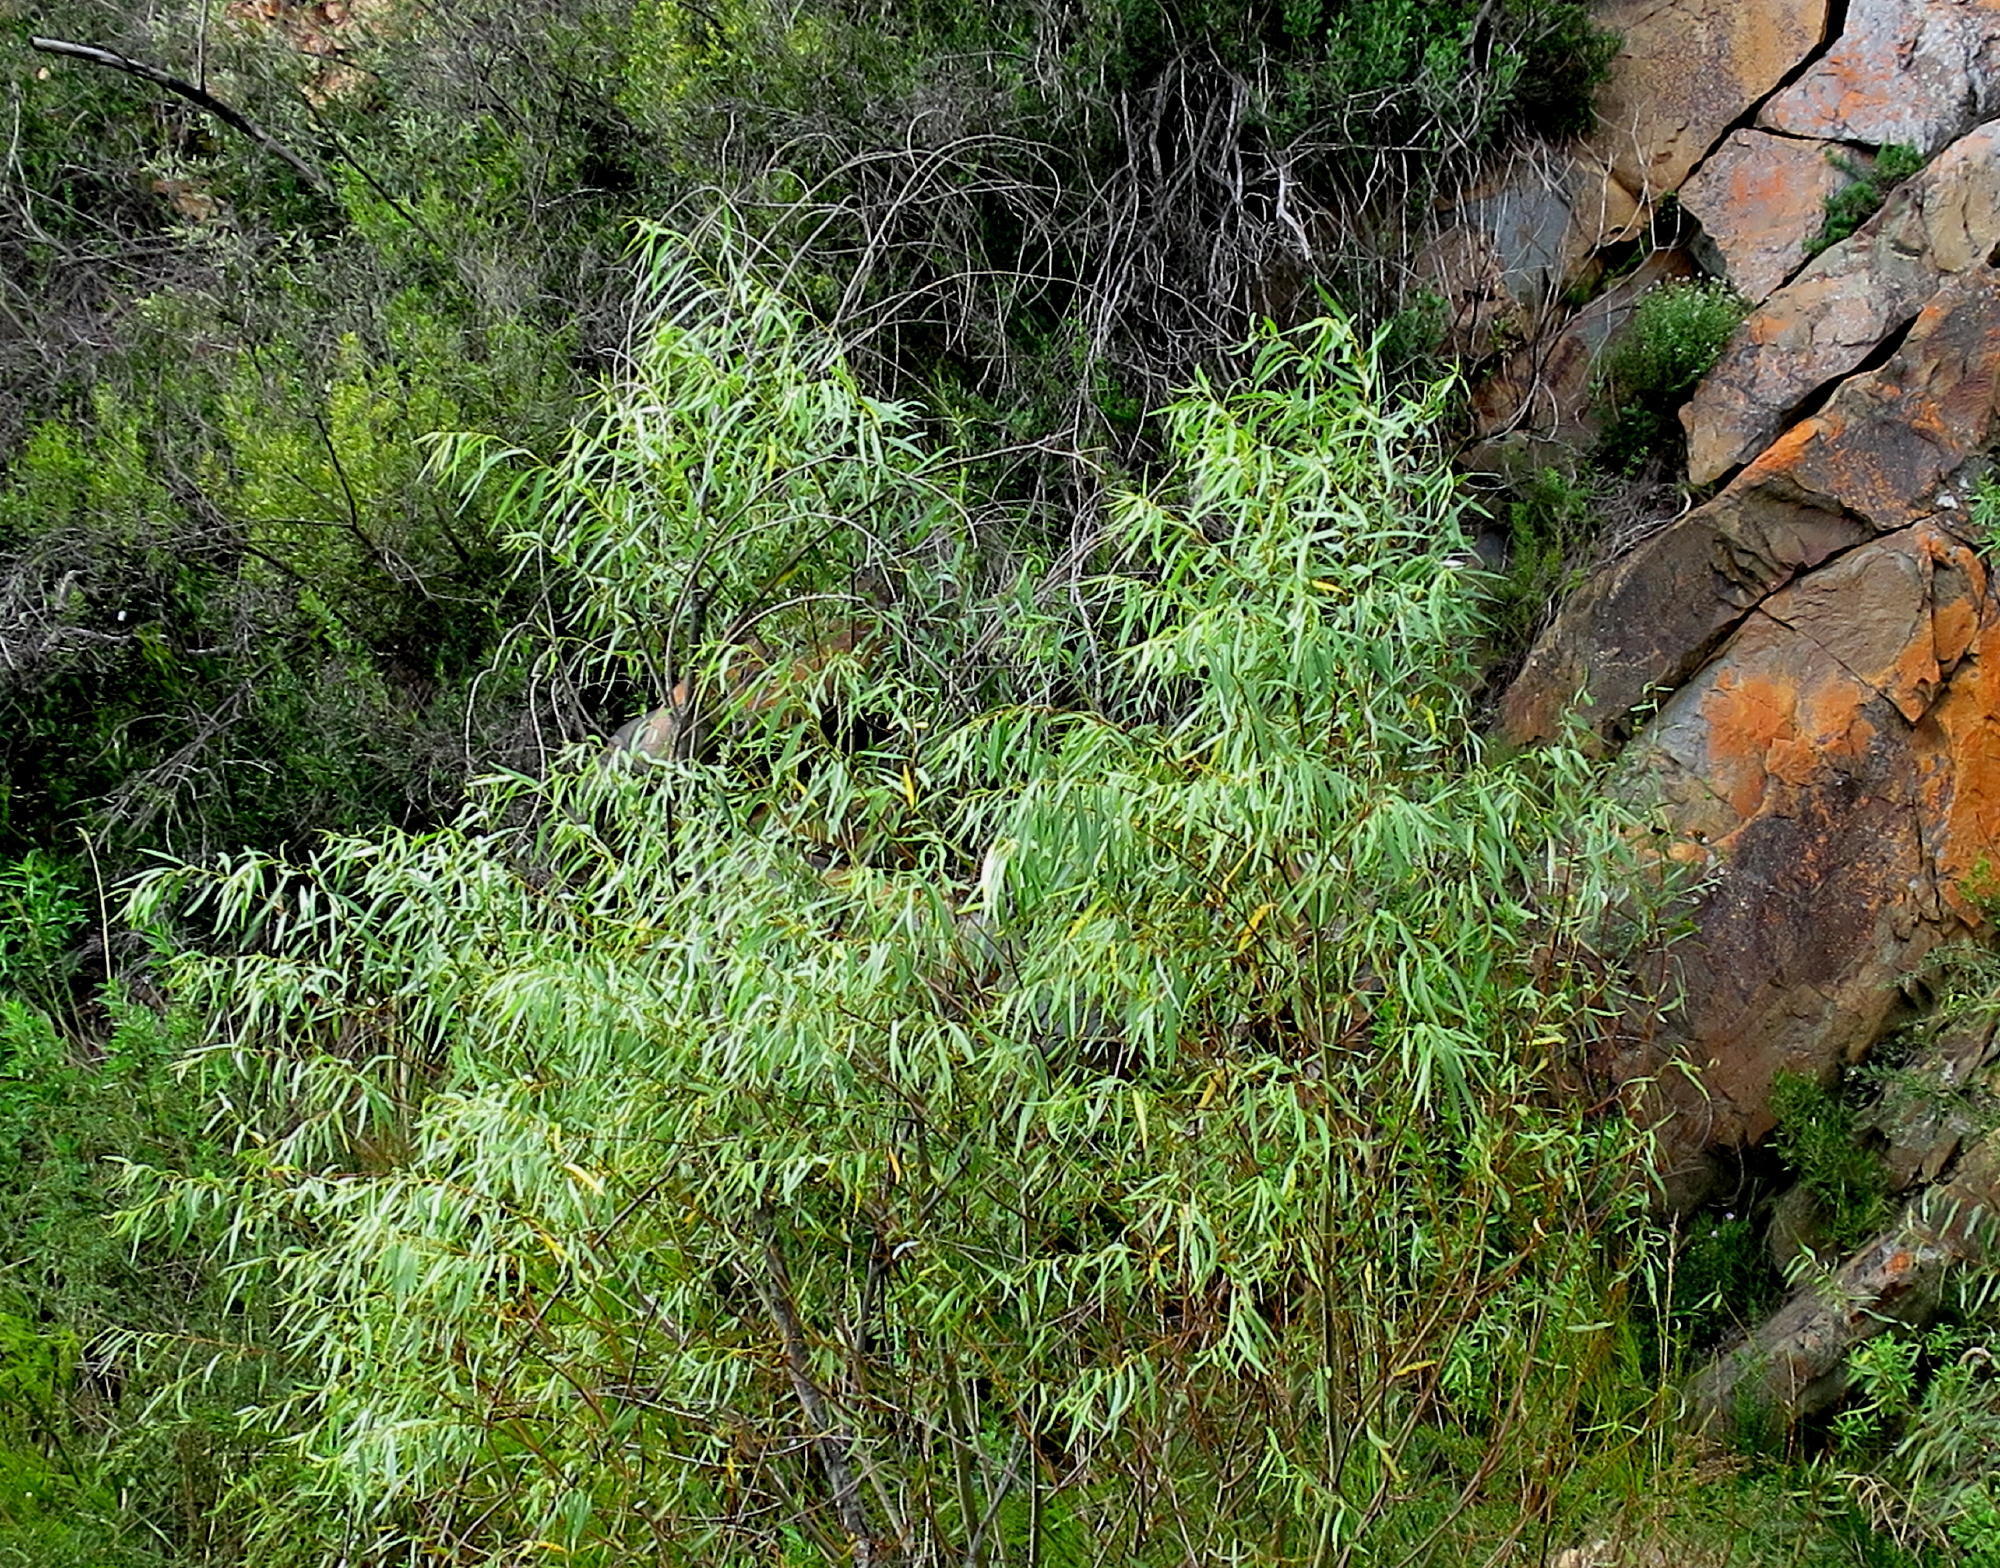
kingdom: Plantae
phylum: Tracheophyta
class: Magnoliopsida
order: Malpighiales
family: Salicaceae
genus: Salix
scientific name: Salix mucronata
